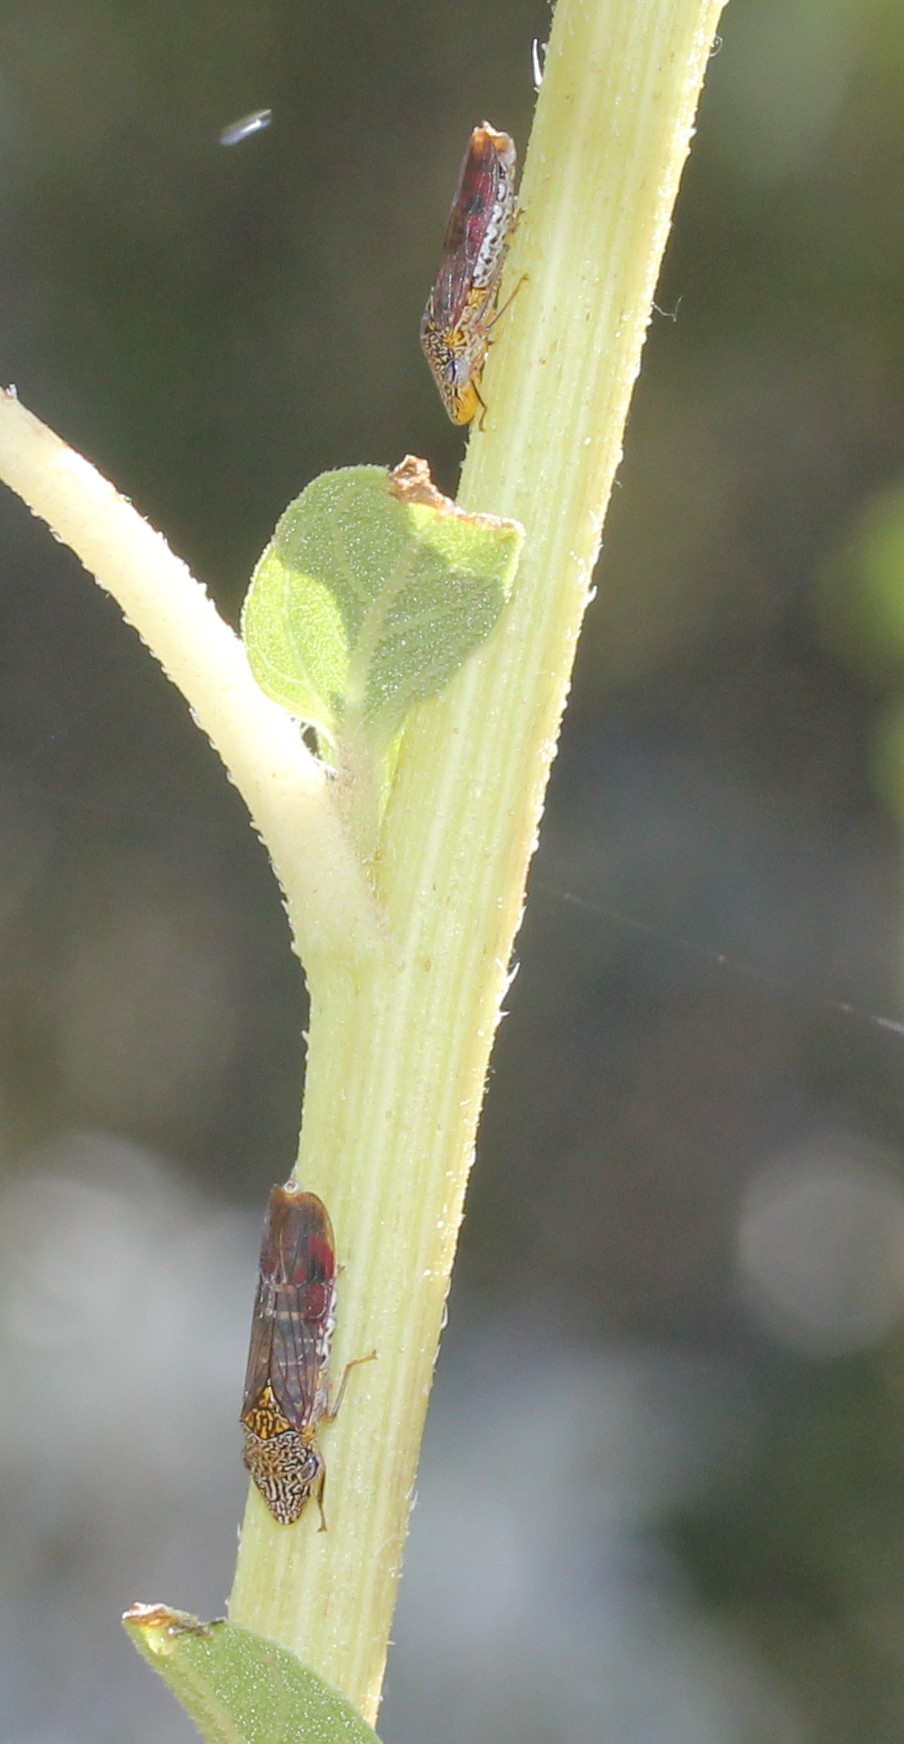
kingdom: Animalia
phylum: Arthropoda
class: Insecta
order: Hemiptera
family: Cicadellidae
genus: Homalodisca
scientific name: Homalodisca liturata
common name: Lacertate sharpshooter
